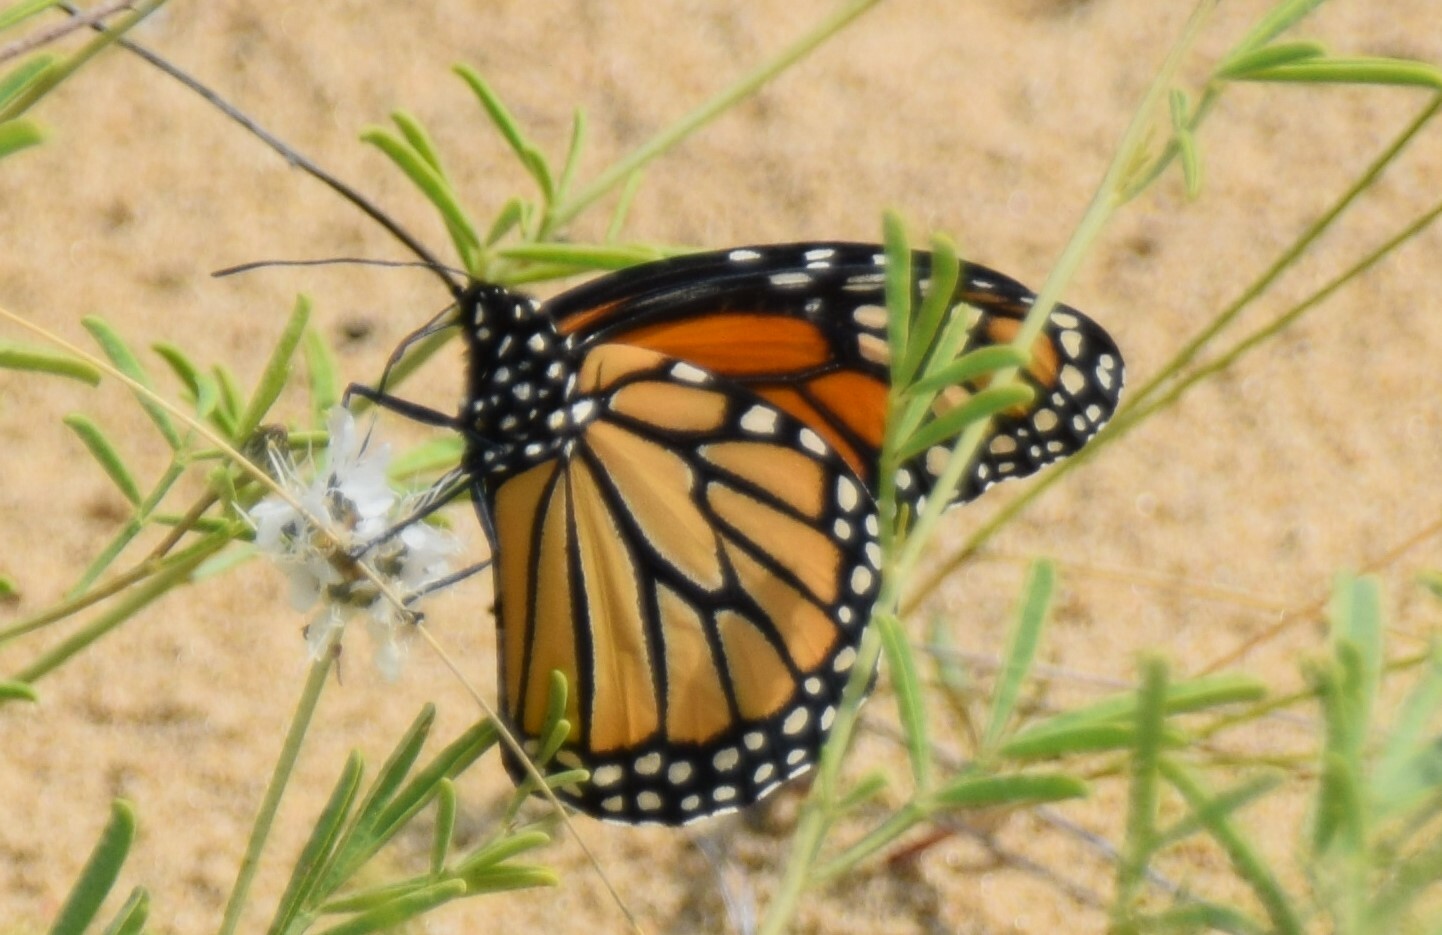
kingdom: Animalia
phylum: Arthropoda
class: Insecta
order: Lepidoptera
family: Nymphalidae
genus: Danaus
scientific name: Danaus plexippus
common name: Monarch
